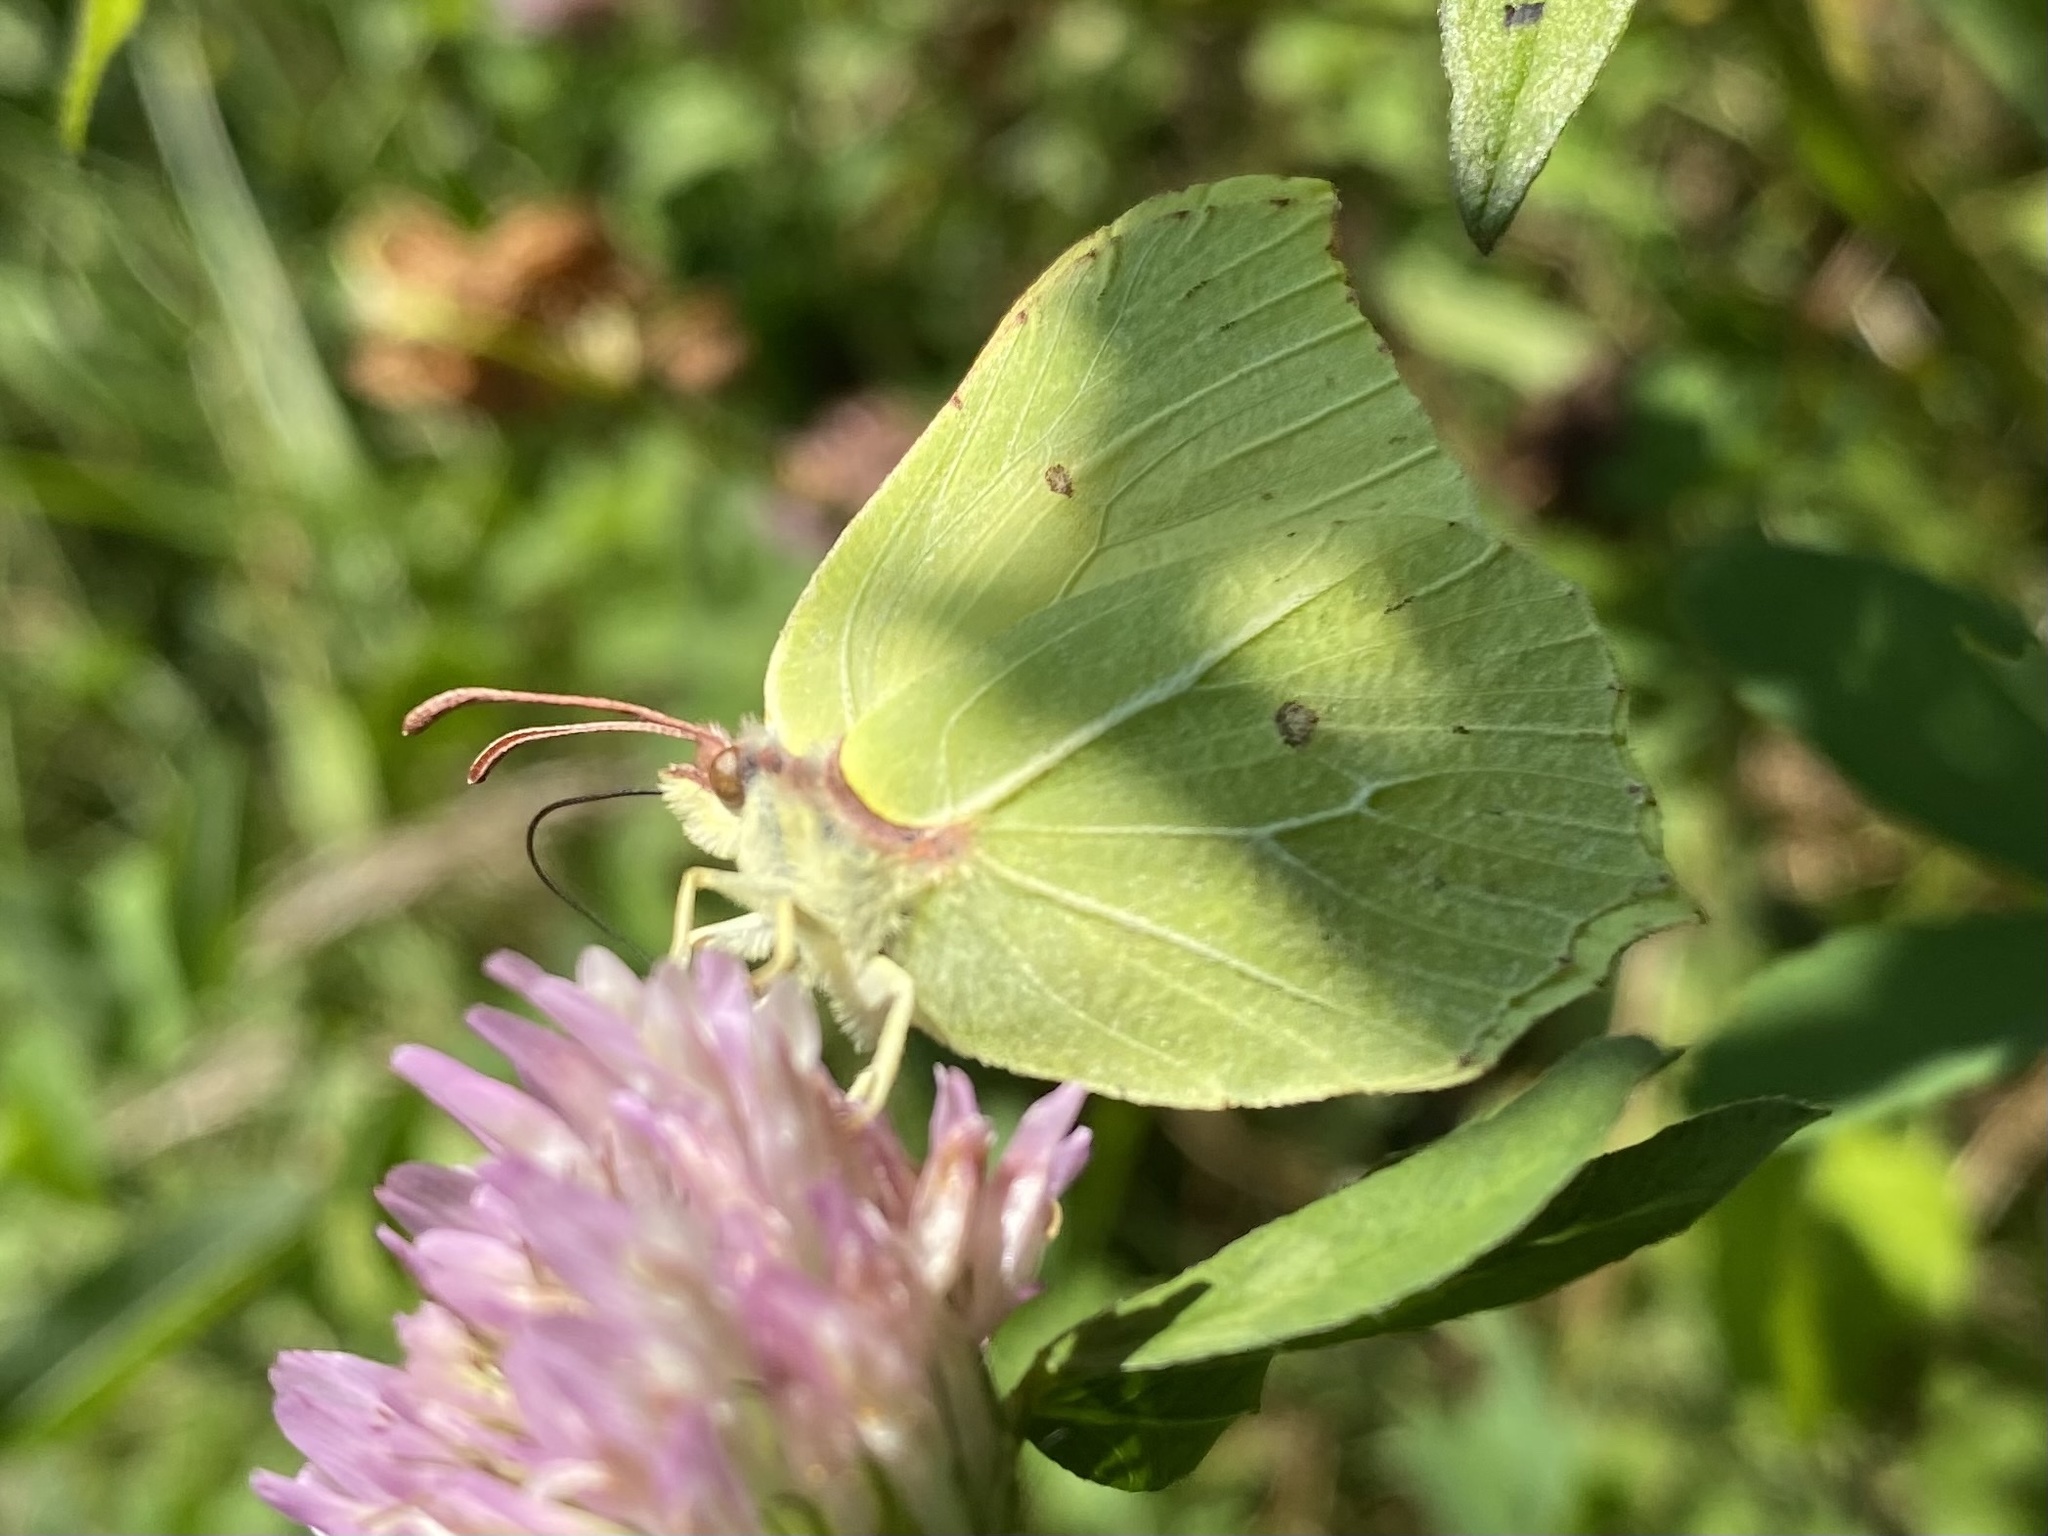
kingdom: Animalia
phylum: Arthropoda
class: Insecta
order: Lepidoptera
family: Pieridae
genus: Gonepteryx
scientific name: Gonepteryx rhamni
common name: Brimstone
